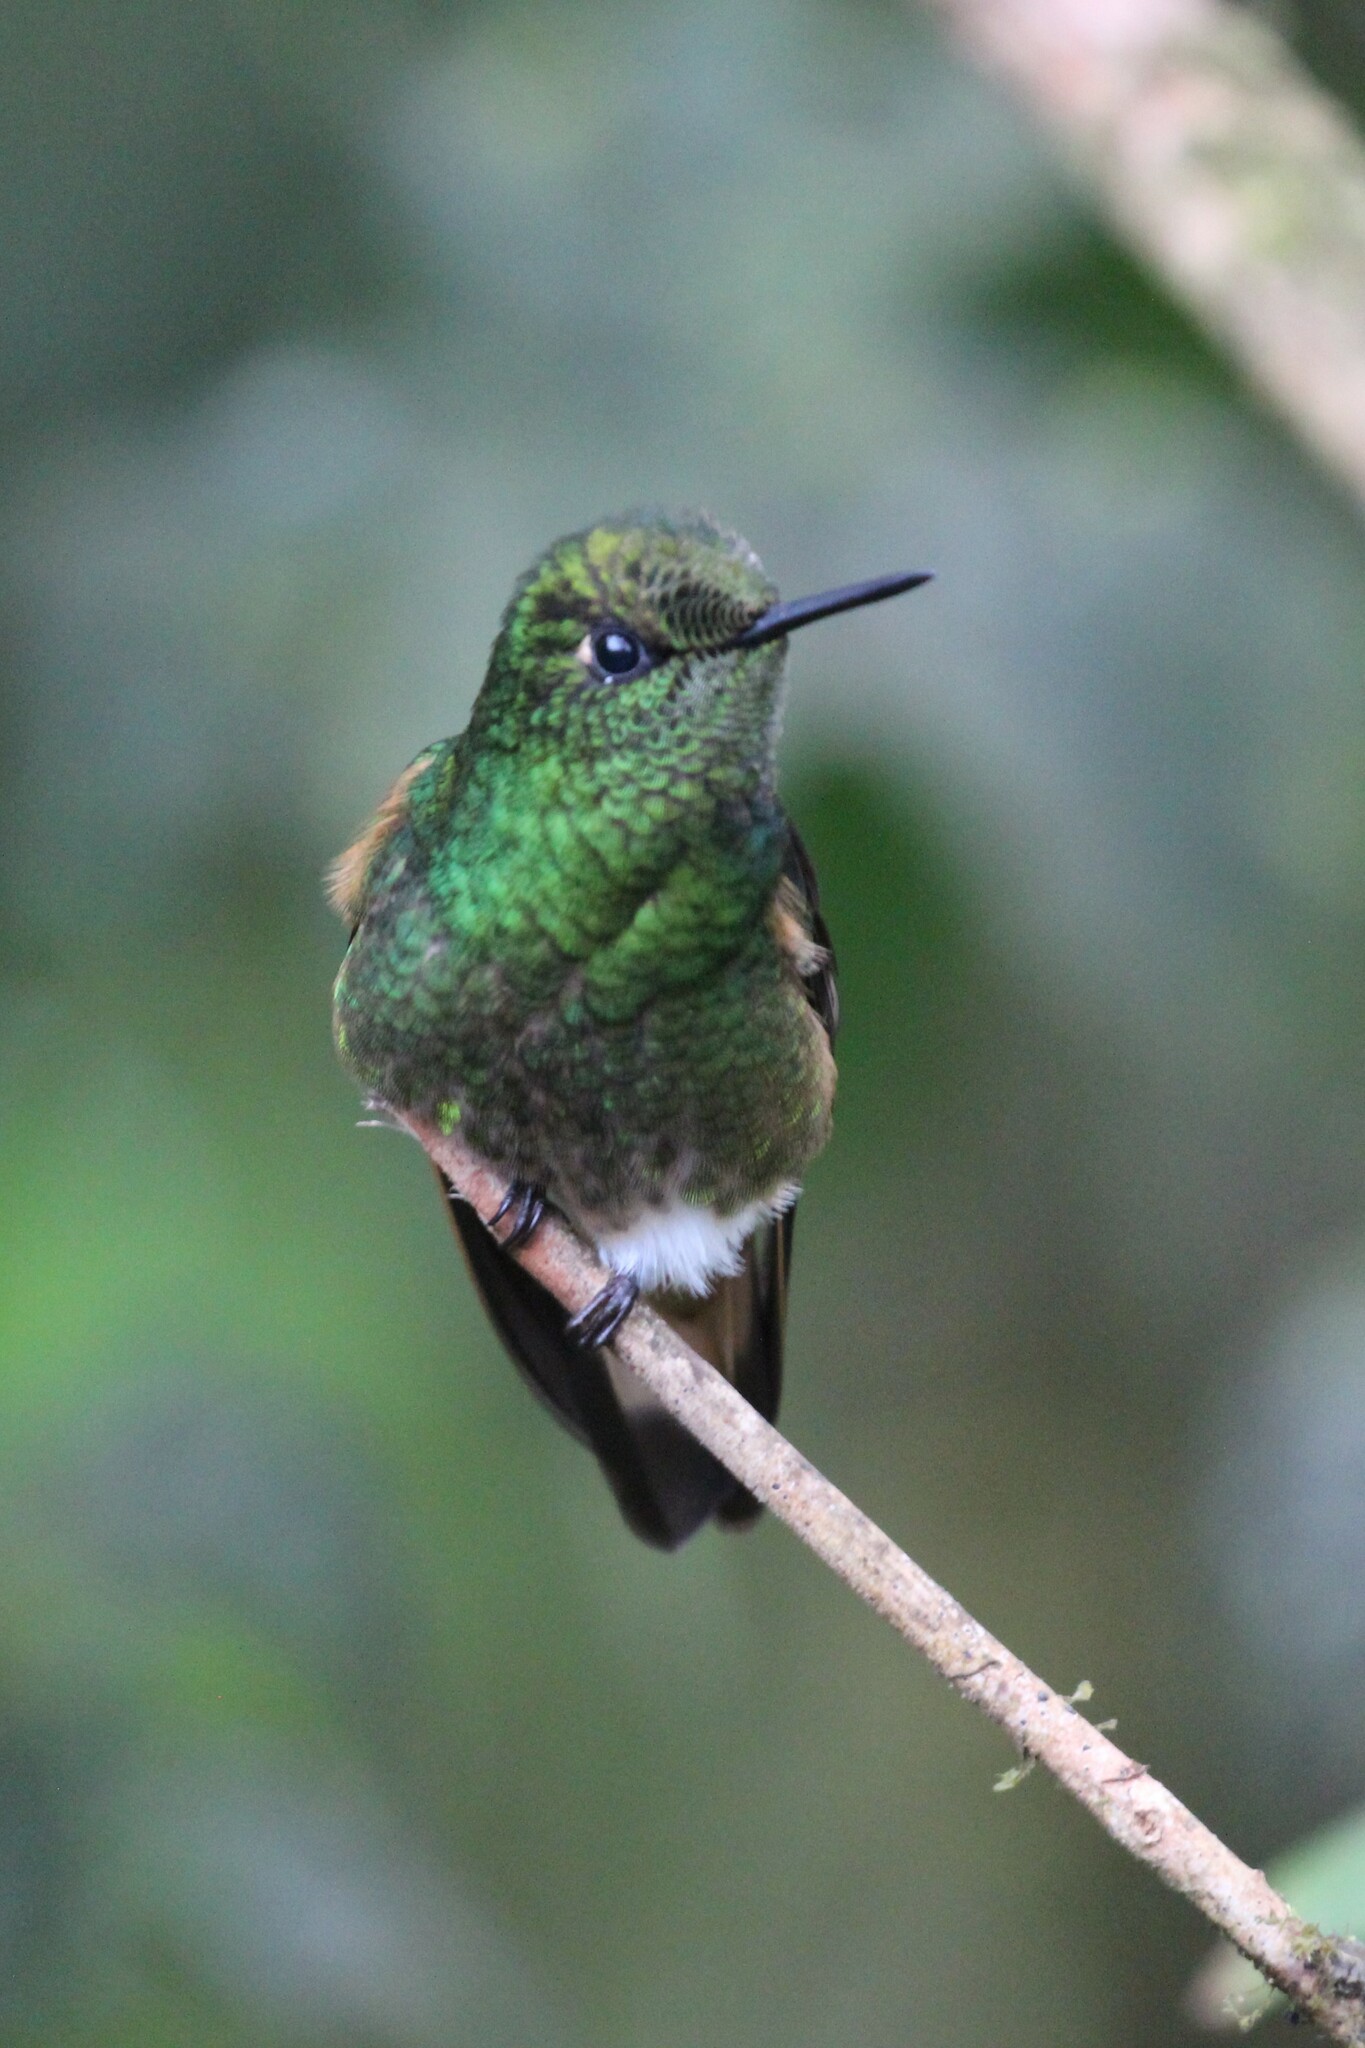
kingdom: Animalia
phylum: Chordata
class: Aves
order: Apodiformes
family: Trochilidae
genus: Boissonneaua
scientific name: Boissonneaua flavescens
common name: Buff-tailed coronet
